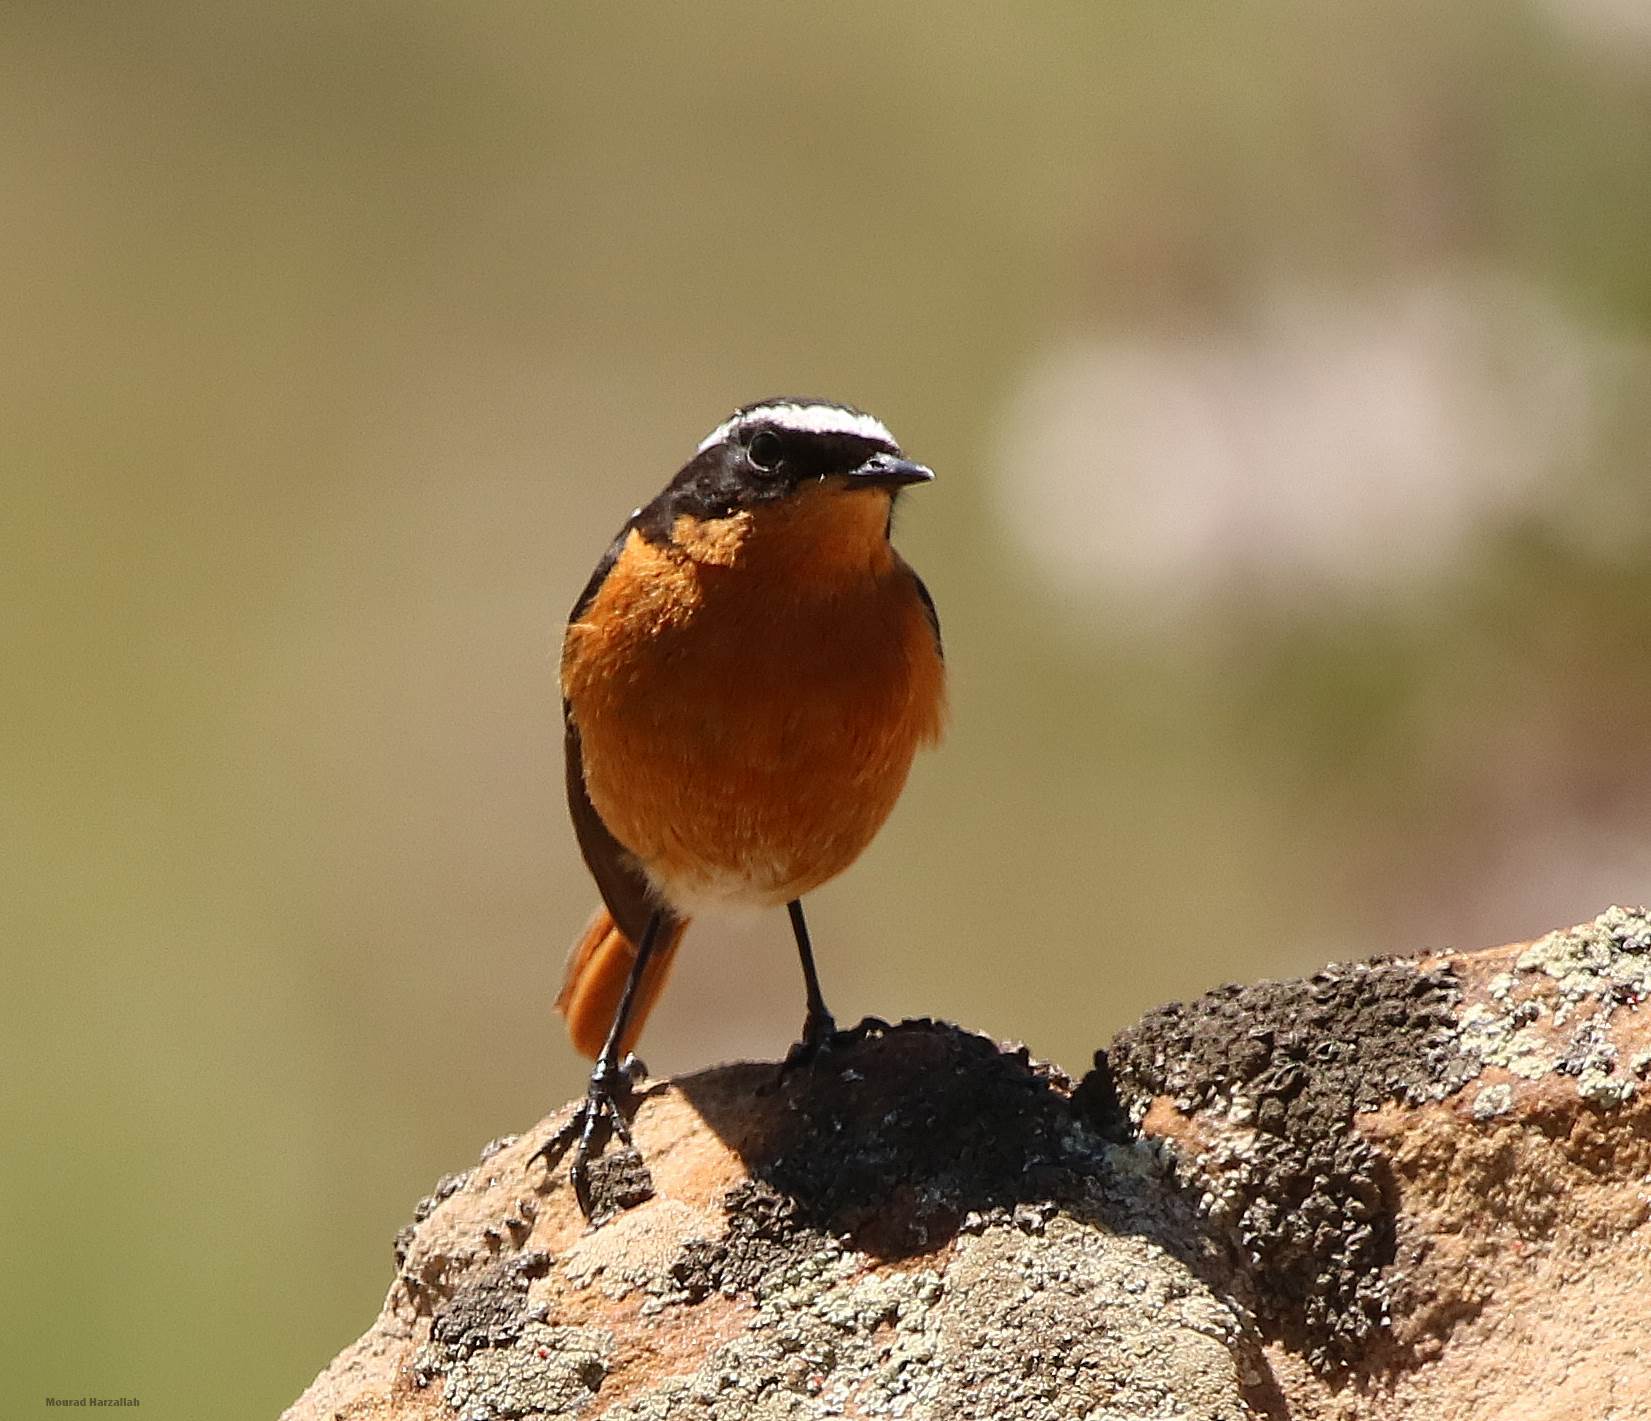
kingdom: Animalia
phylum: Chordata
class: Aves
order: Passeriformes
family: Muscicapidae
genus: Phoenicurus
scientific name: Phoenicurus moussieri
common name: Moussier's redstart
